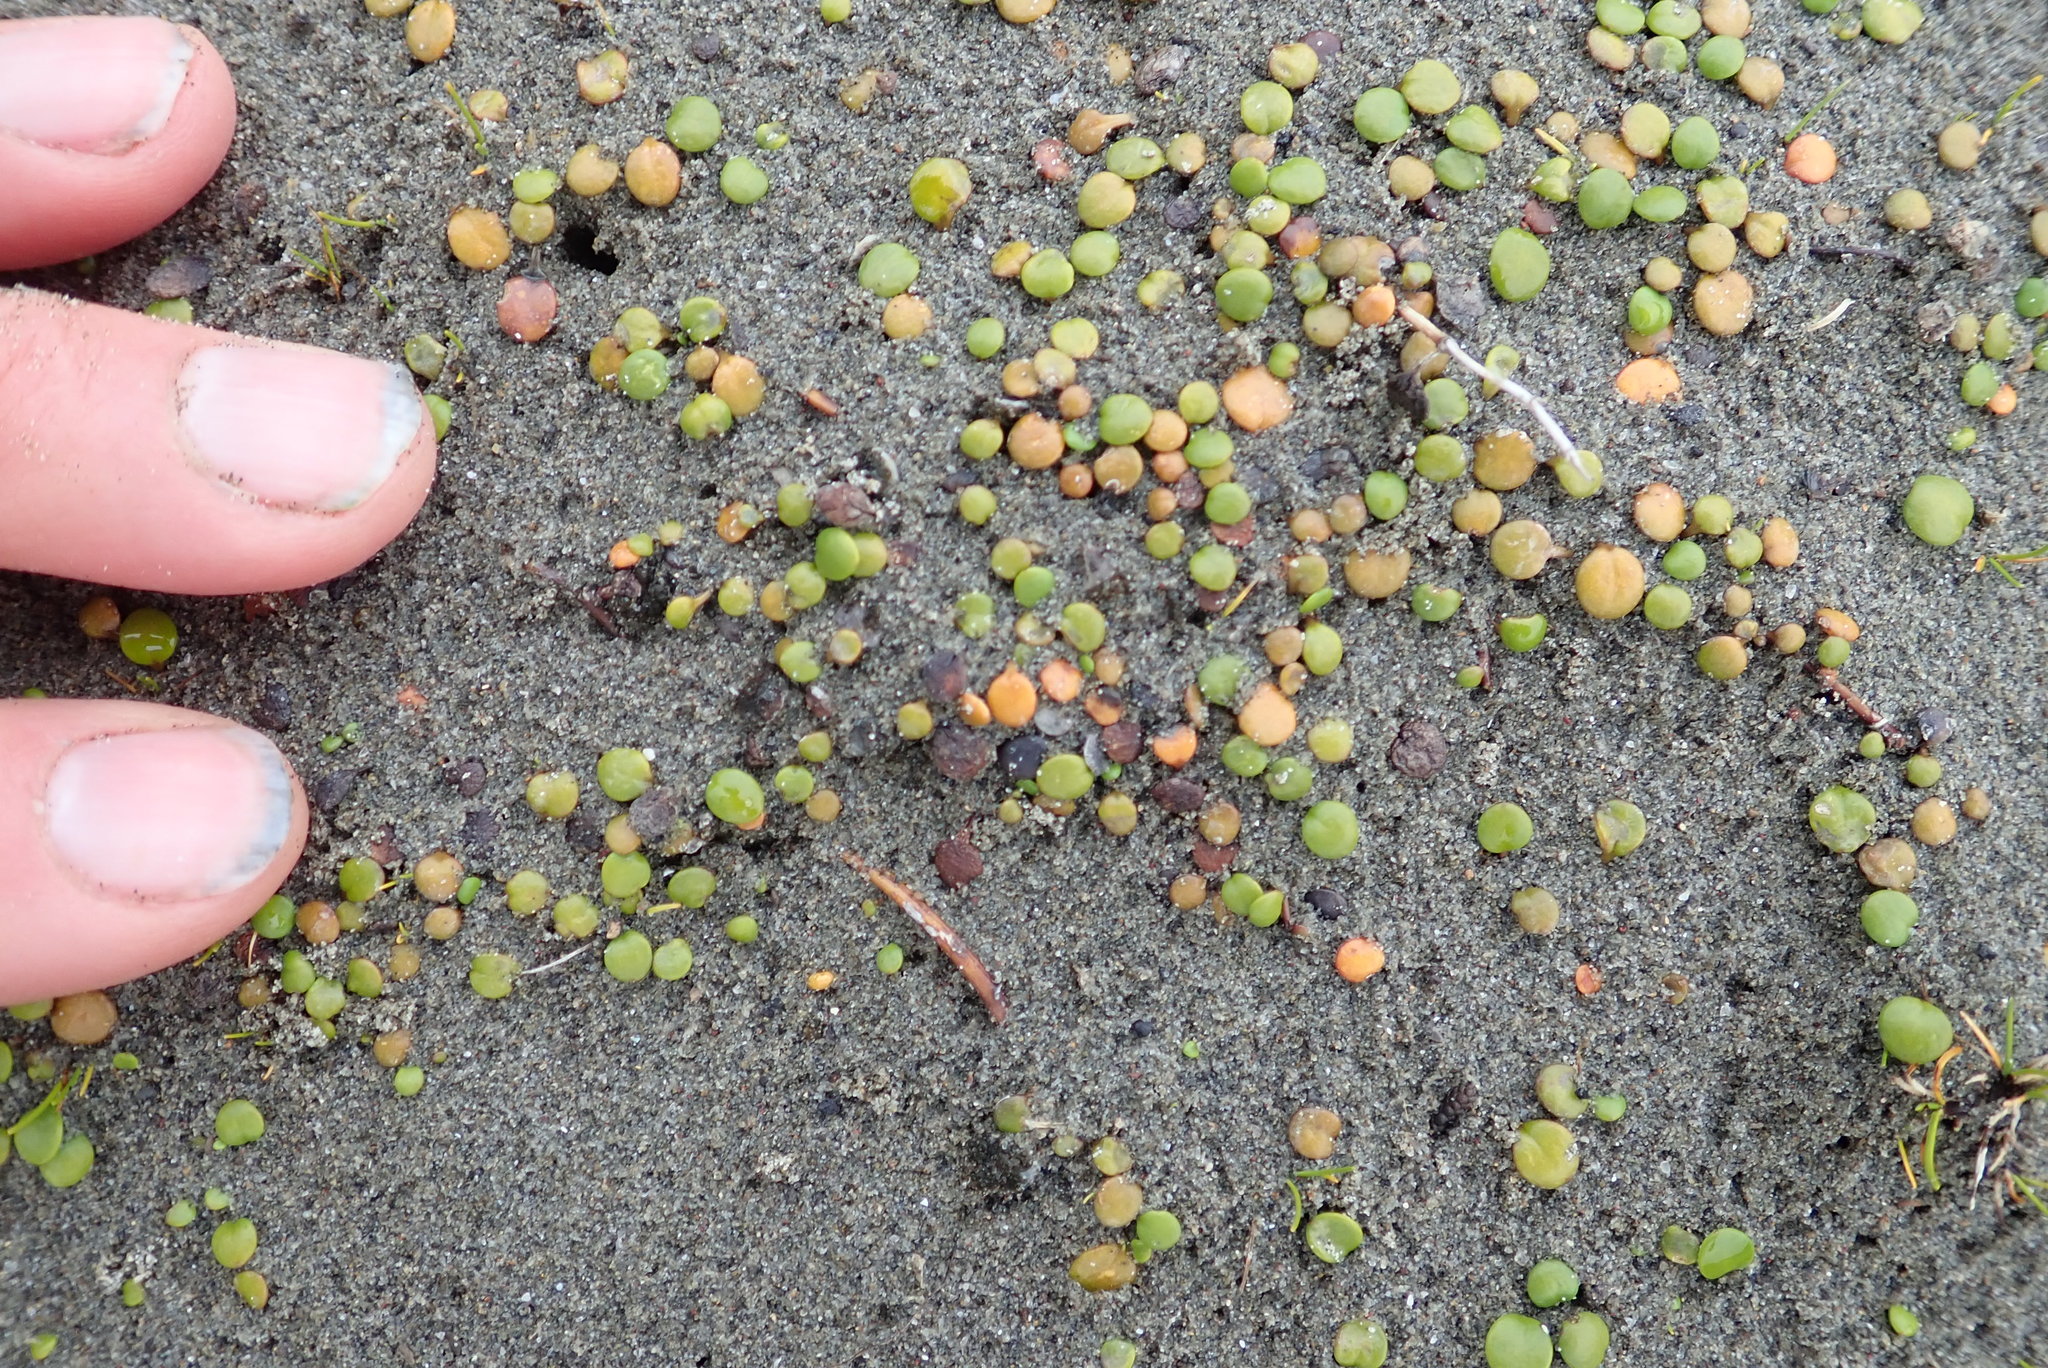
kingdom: Plantae
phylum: Tracheophyta
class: Magnoliopsida
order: Asterales
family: Goodeniaceae
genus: Goodenia
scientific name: Goodenia heenanii
